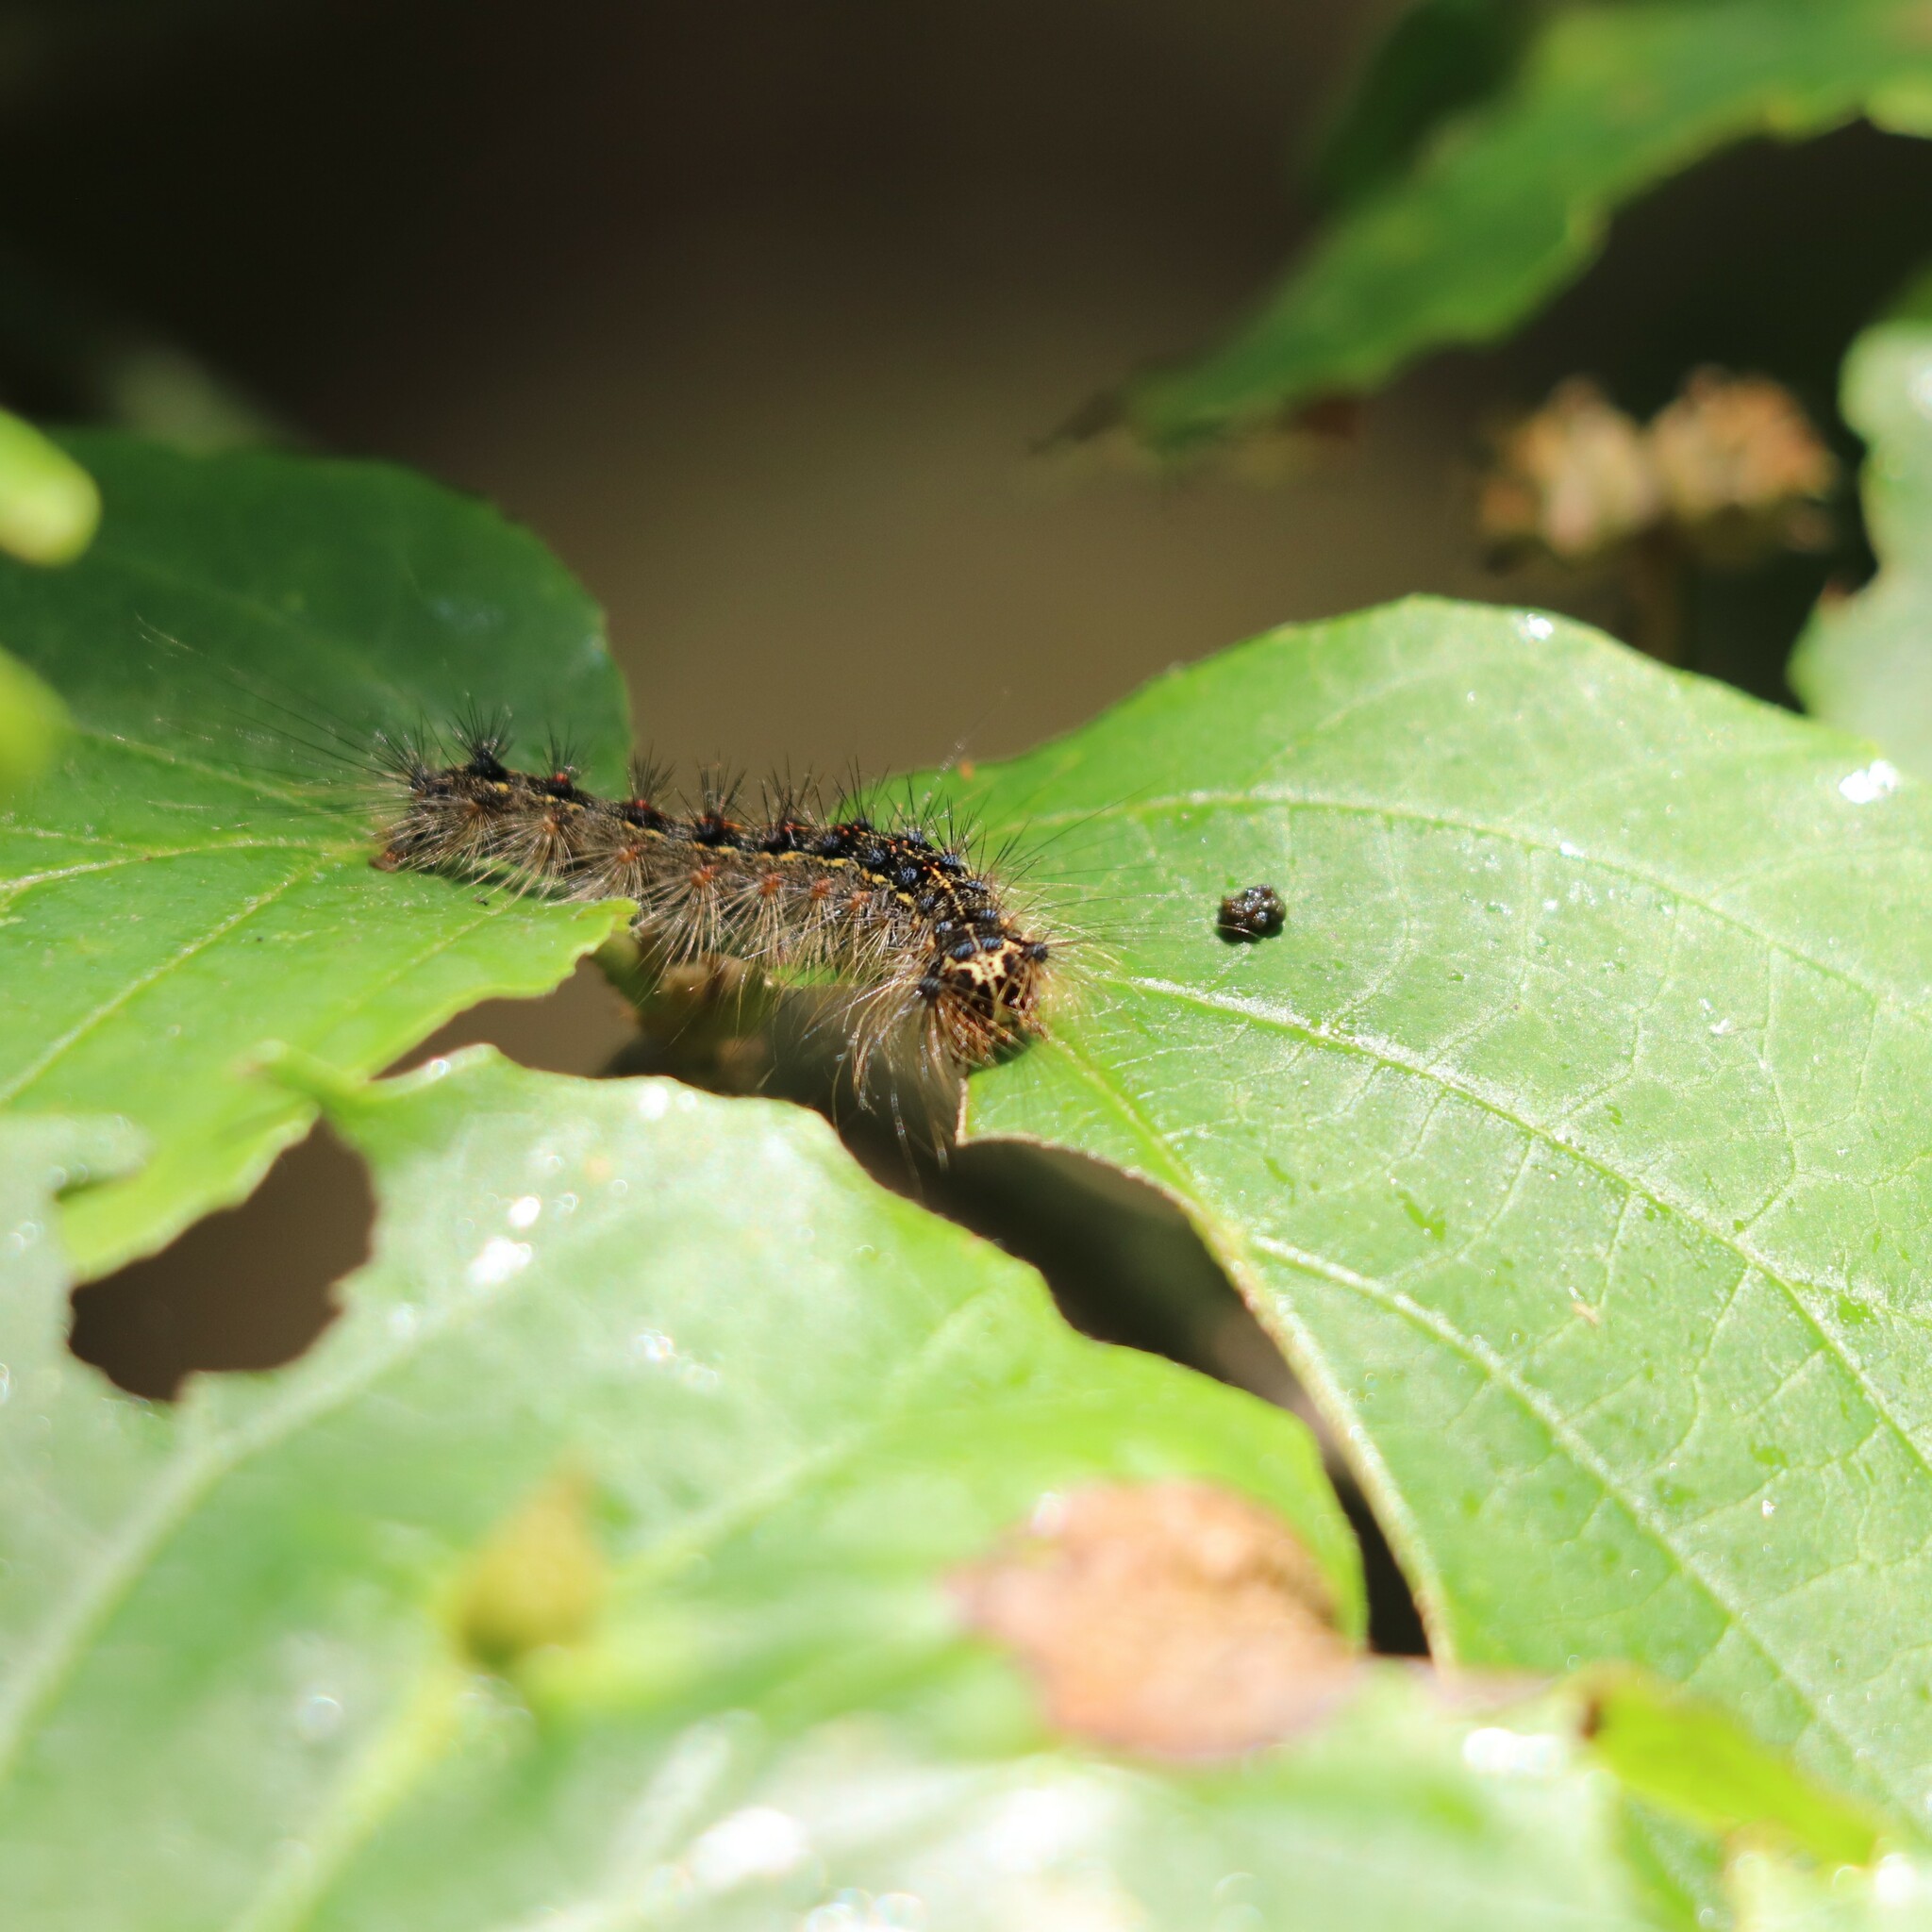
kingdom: Animalia
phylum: Arthropoda
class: Insecta
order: Lepidoptera
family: Erebidae
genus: Lymantria
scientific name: Lymantria dispar
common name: Gypsy moth
